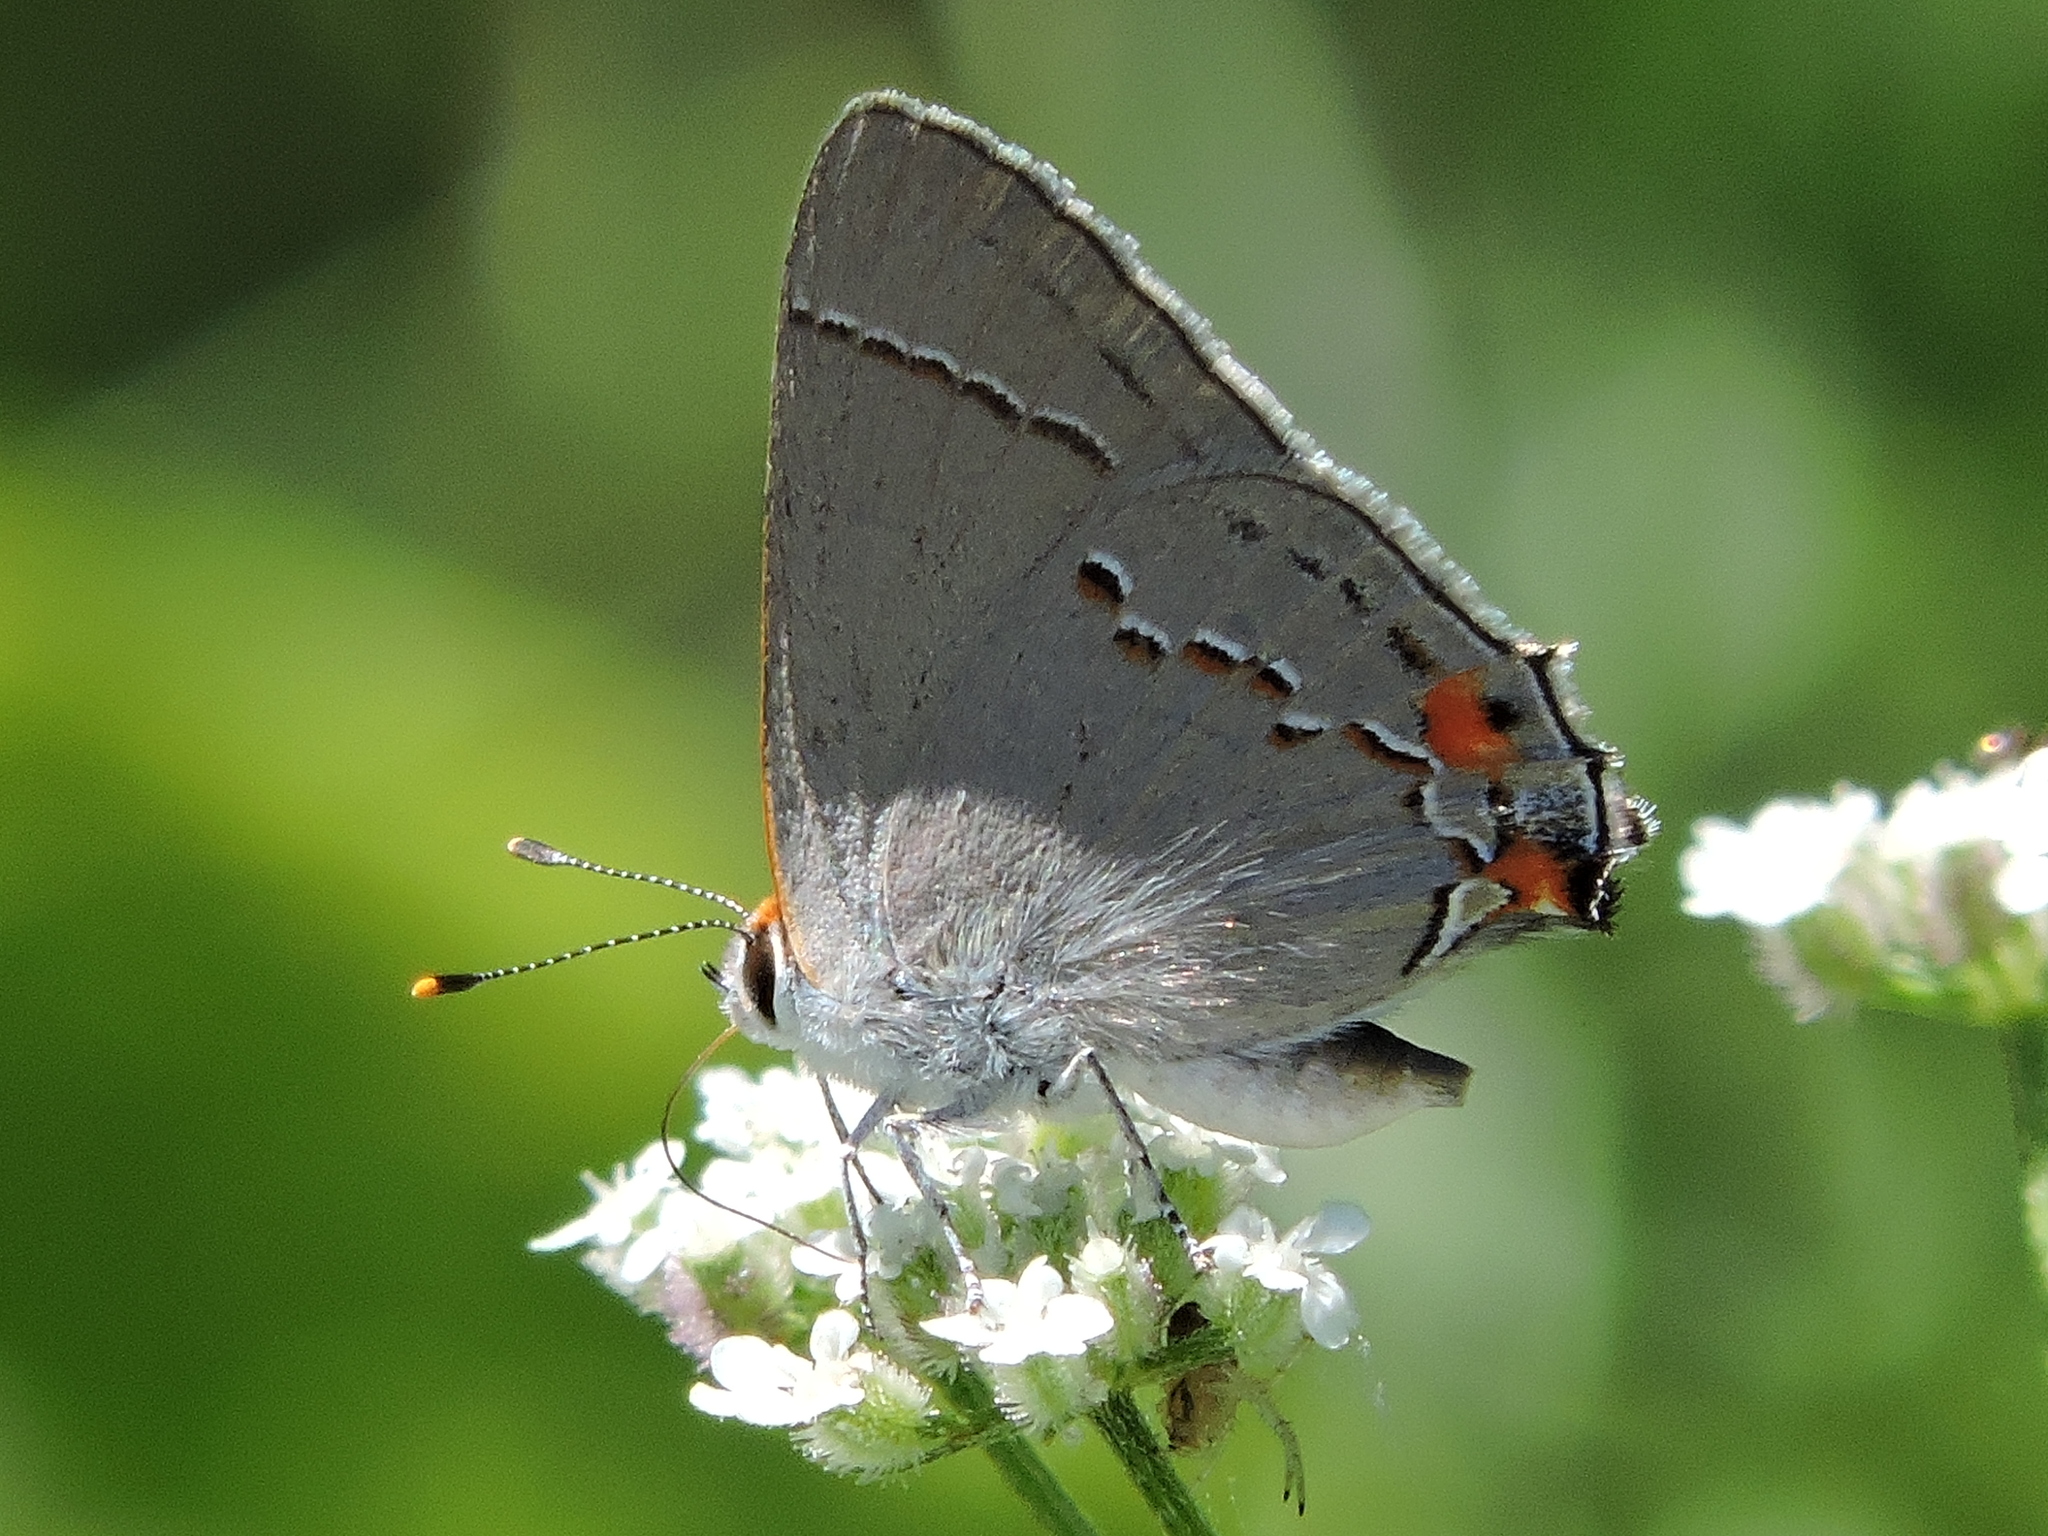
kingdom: Animalia
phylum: Arthropoda
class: Insecta
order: Lepidoptera
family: Lycaenidae
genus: Strymon
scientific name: Strymon melinus
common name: Gray hairstreak
